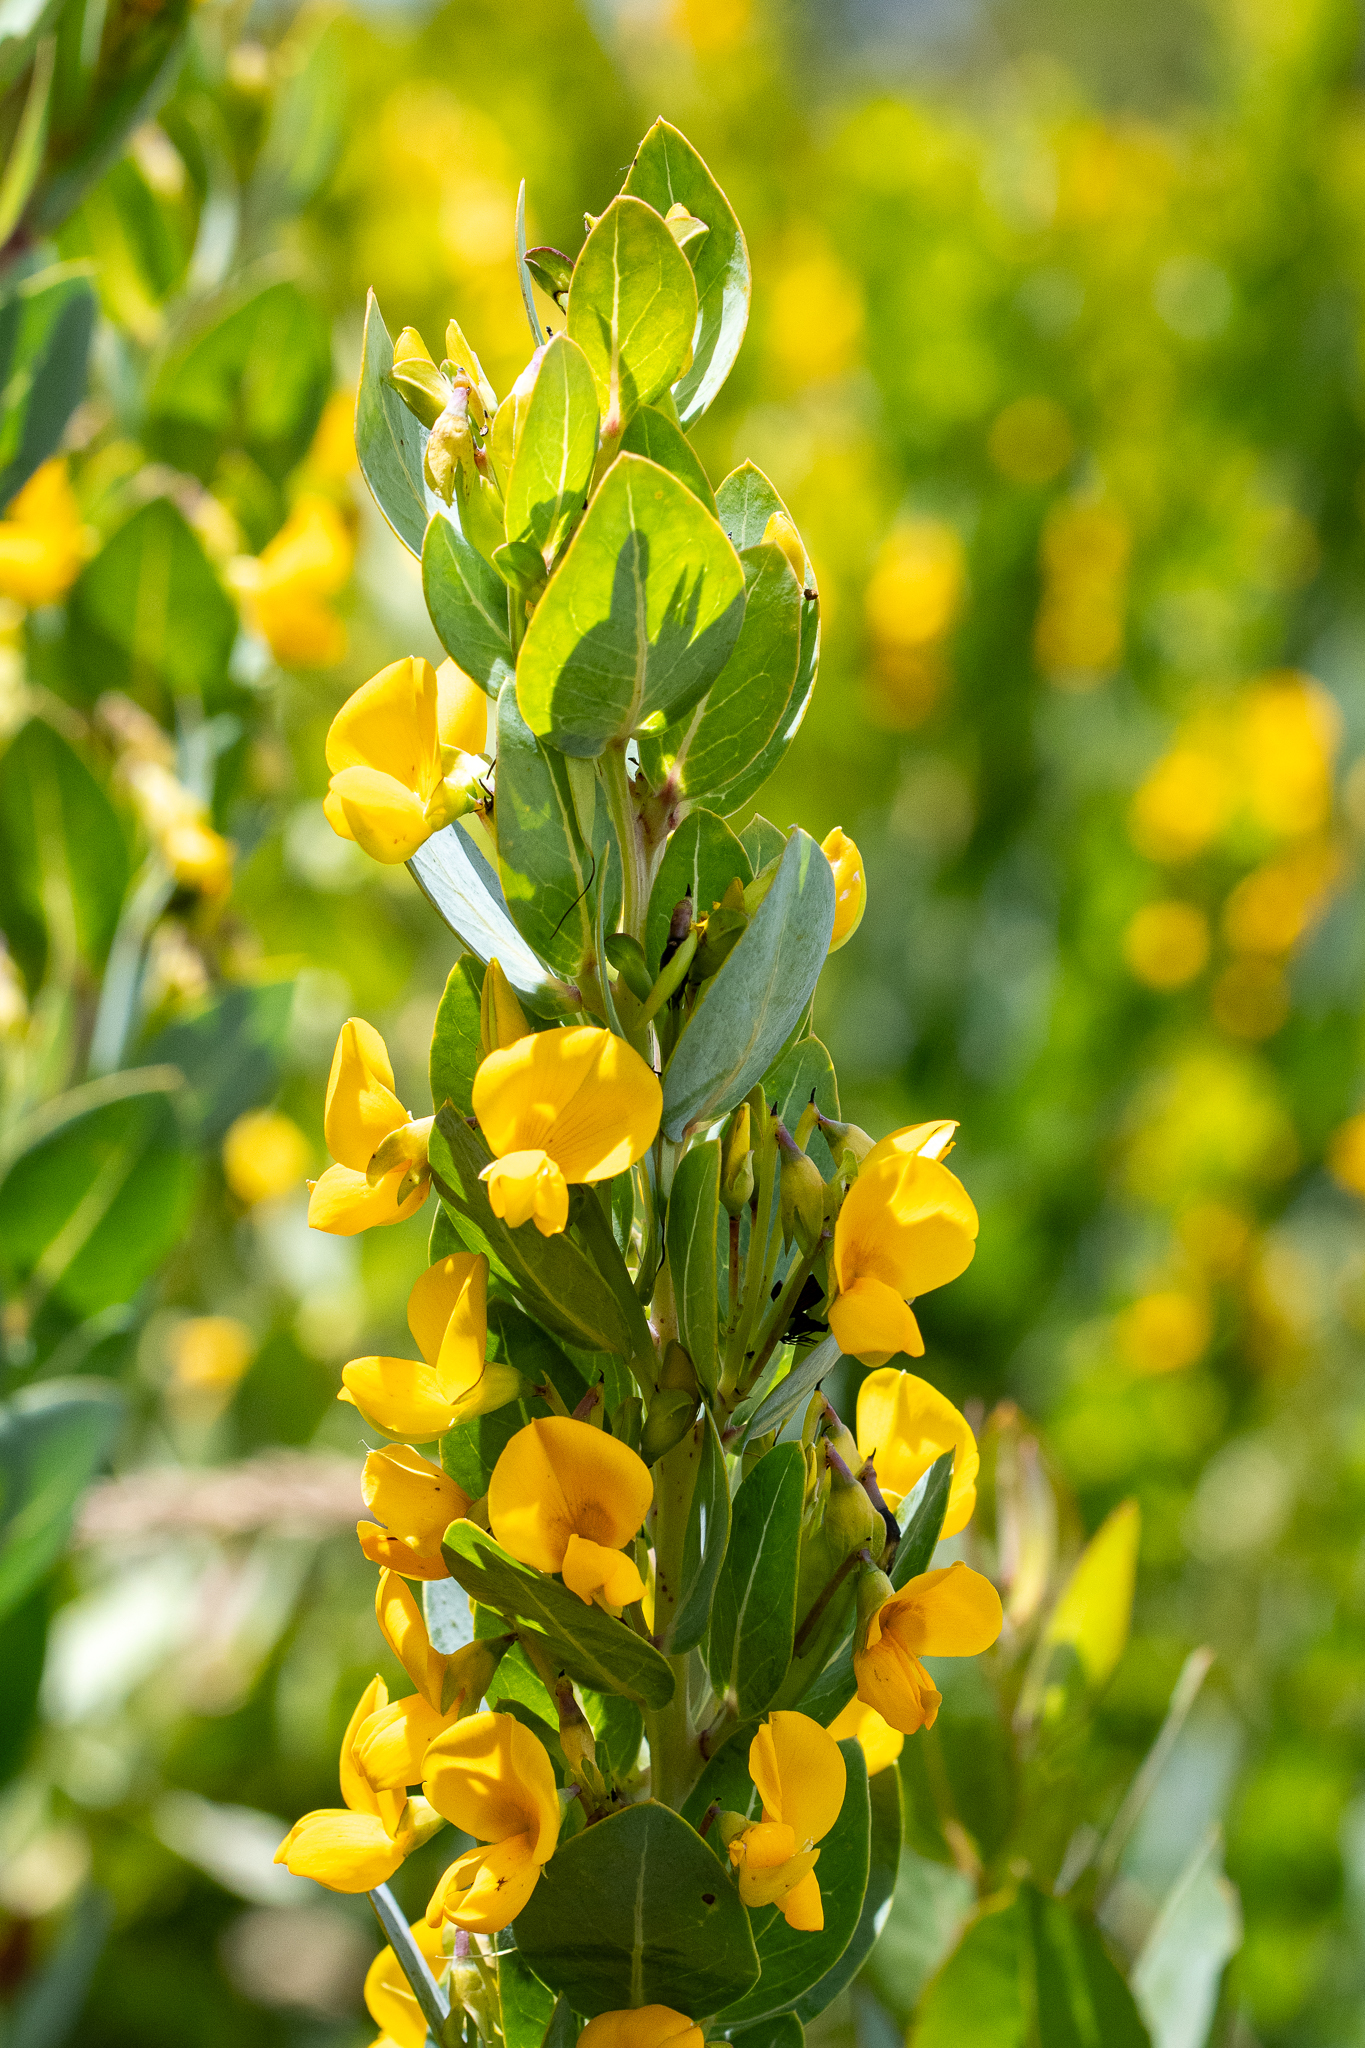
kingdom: Plantae
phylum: Tracheophyta
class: Magnoliopsida
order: Fabales
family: Fabaceae
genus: Rafnia
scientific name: Rafnia triflora
